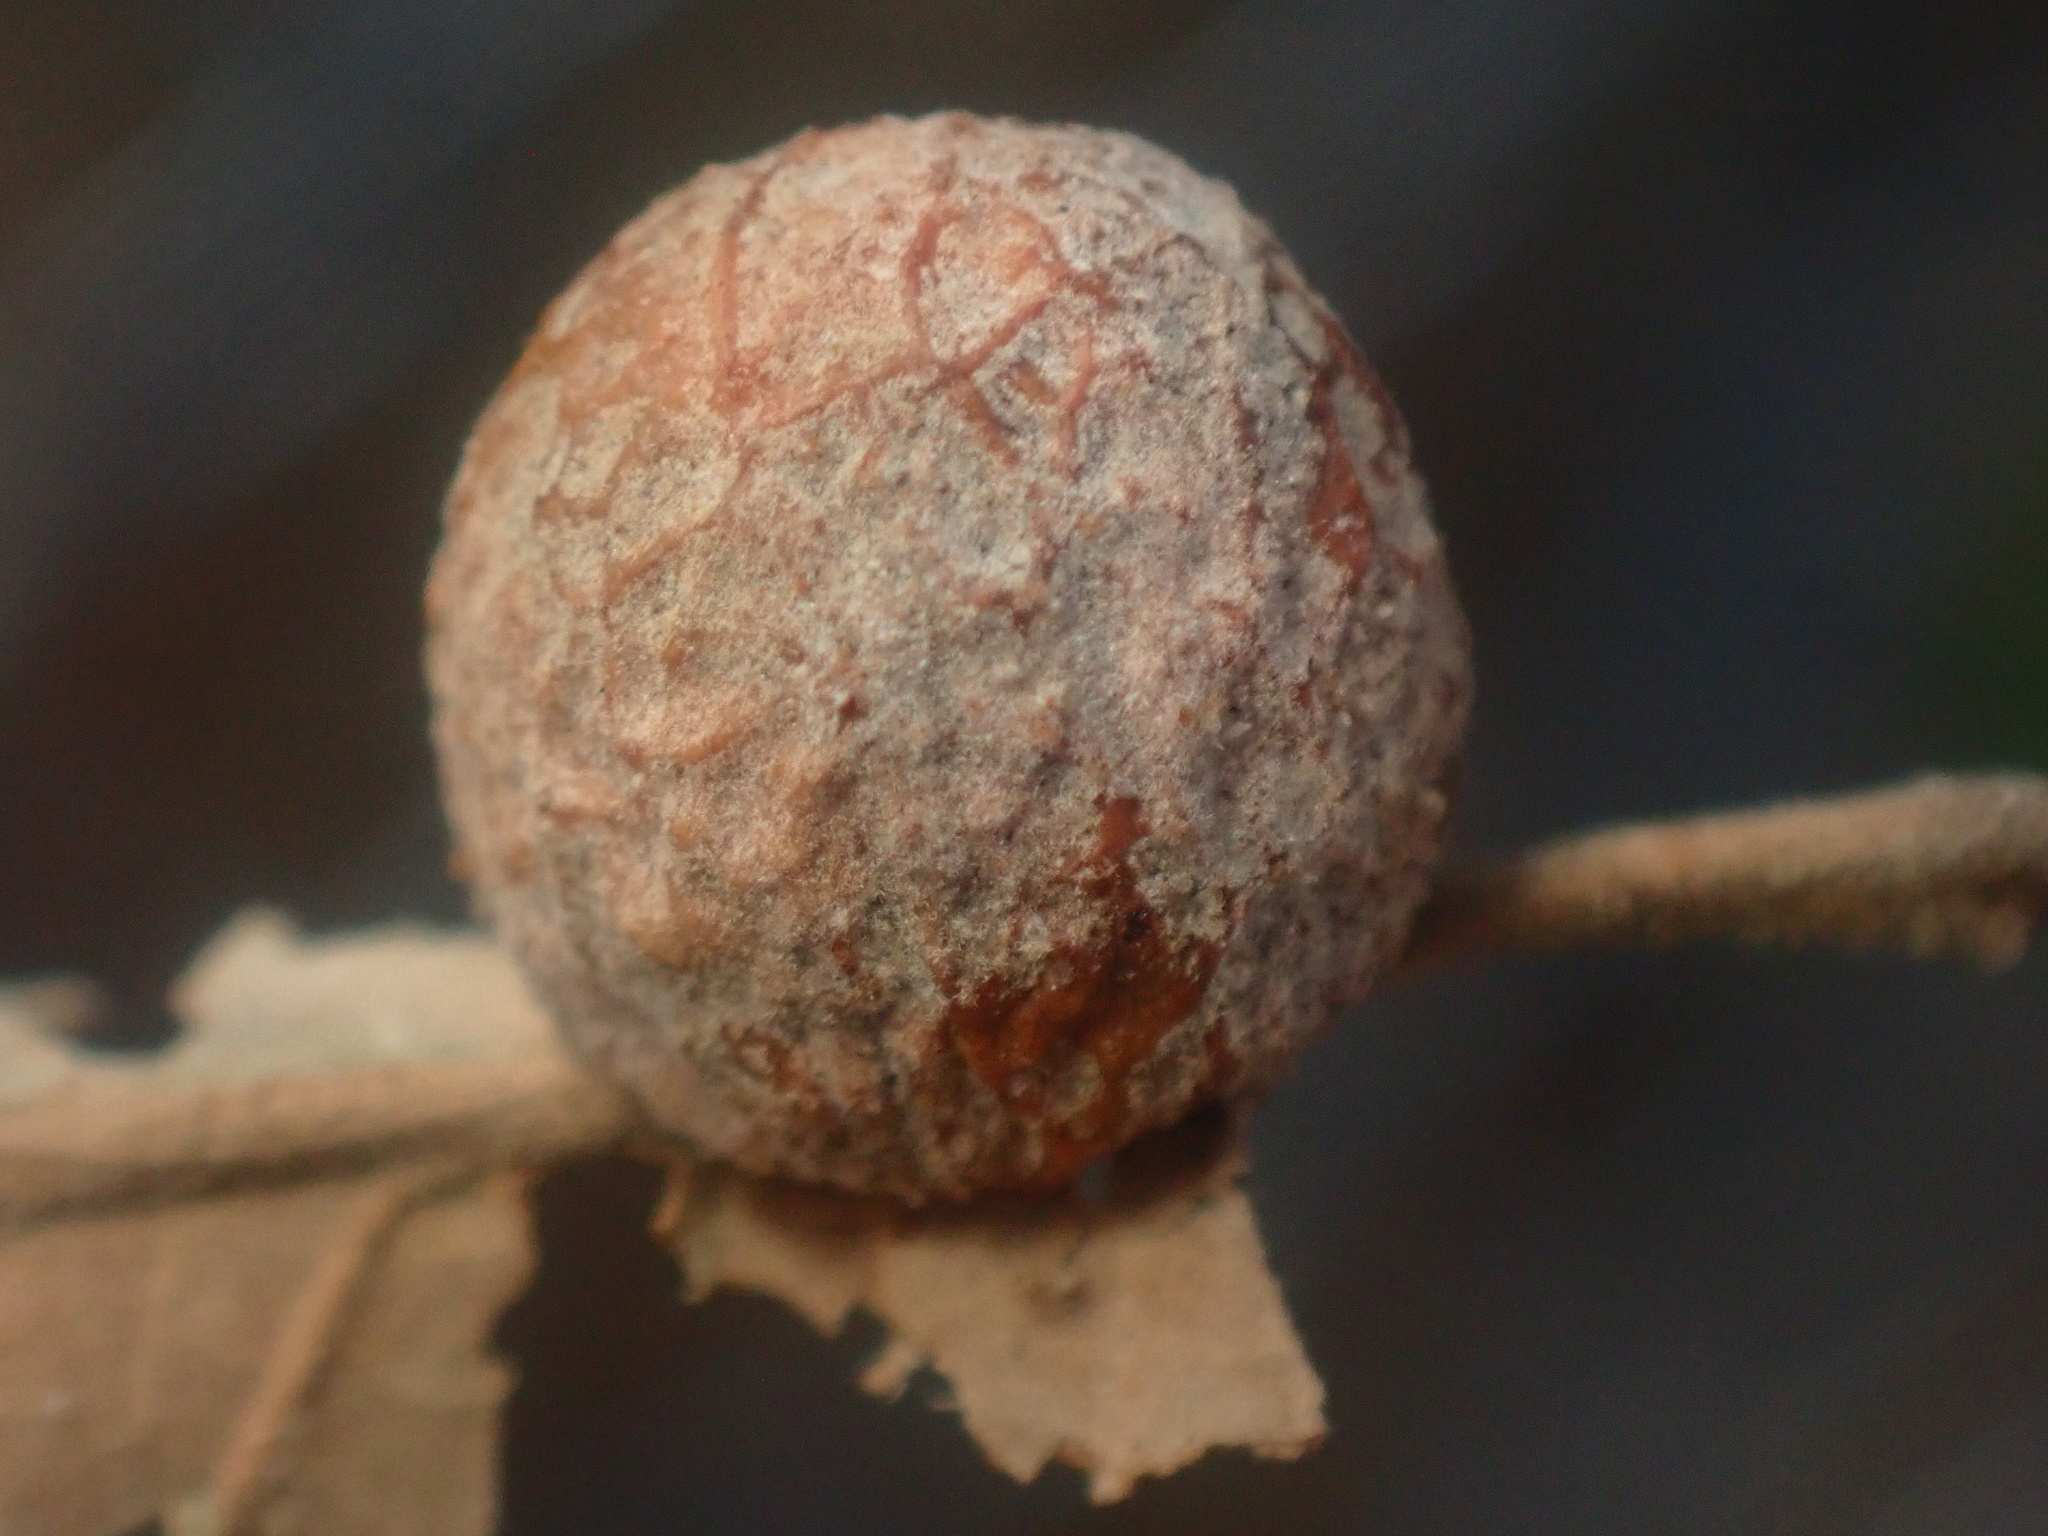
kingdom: Animalia
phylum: Arthropoda
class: Insecta
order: Hymenoptera
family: Cynipidae
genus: Cynips
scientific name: Cynips conspicua
